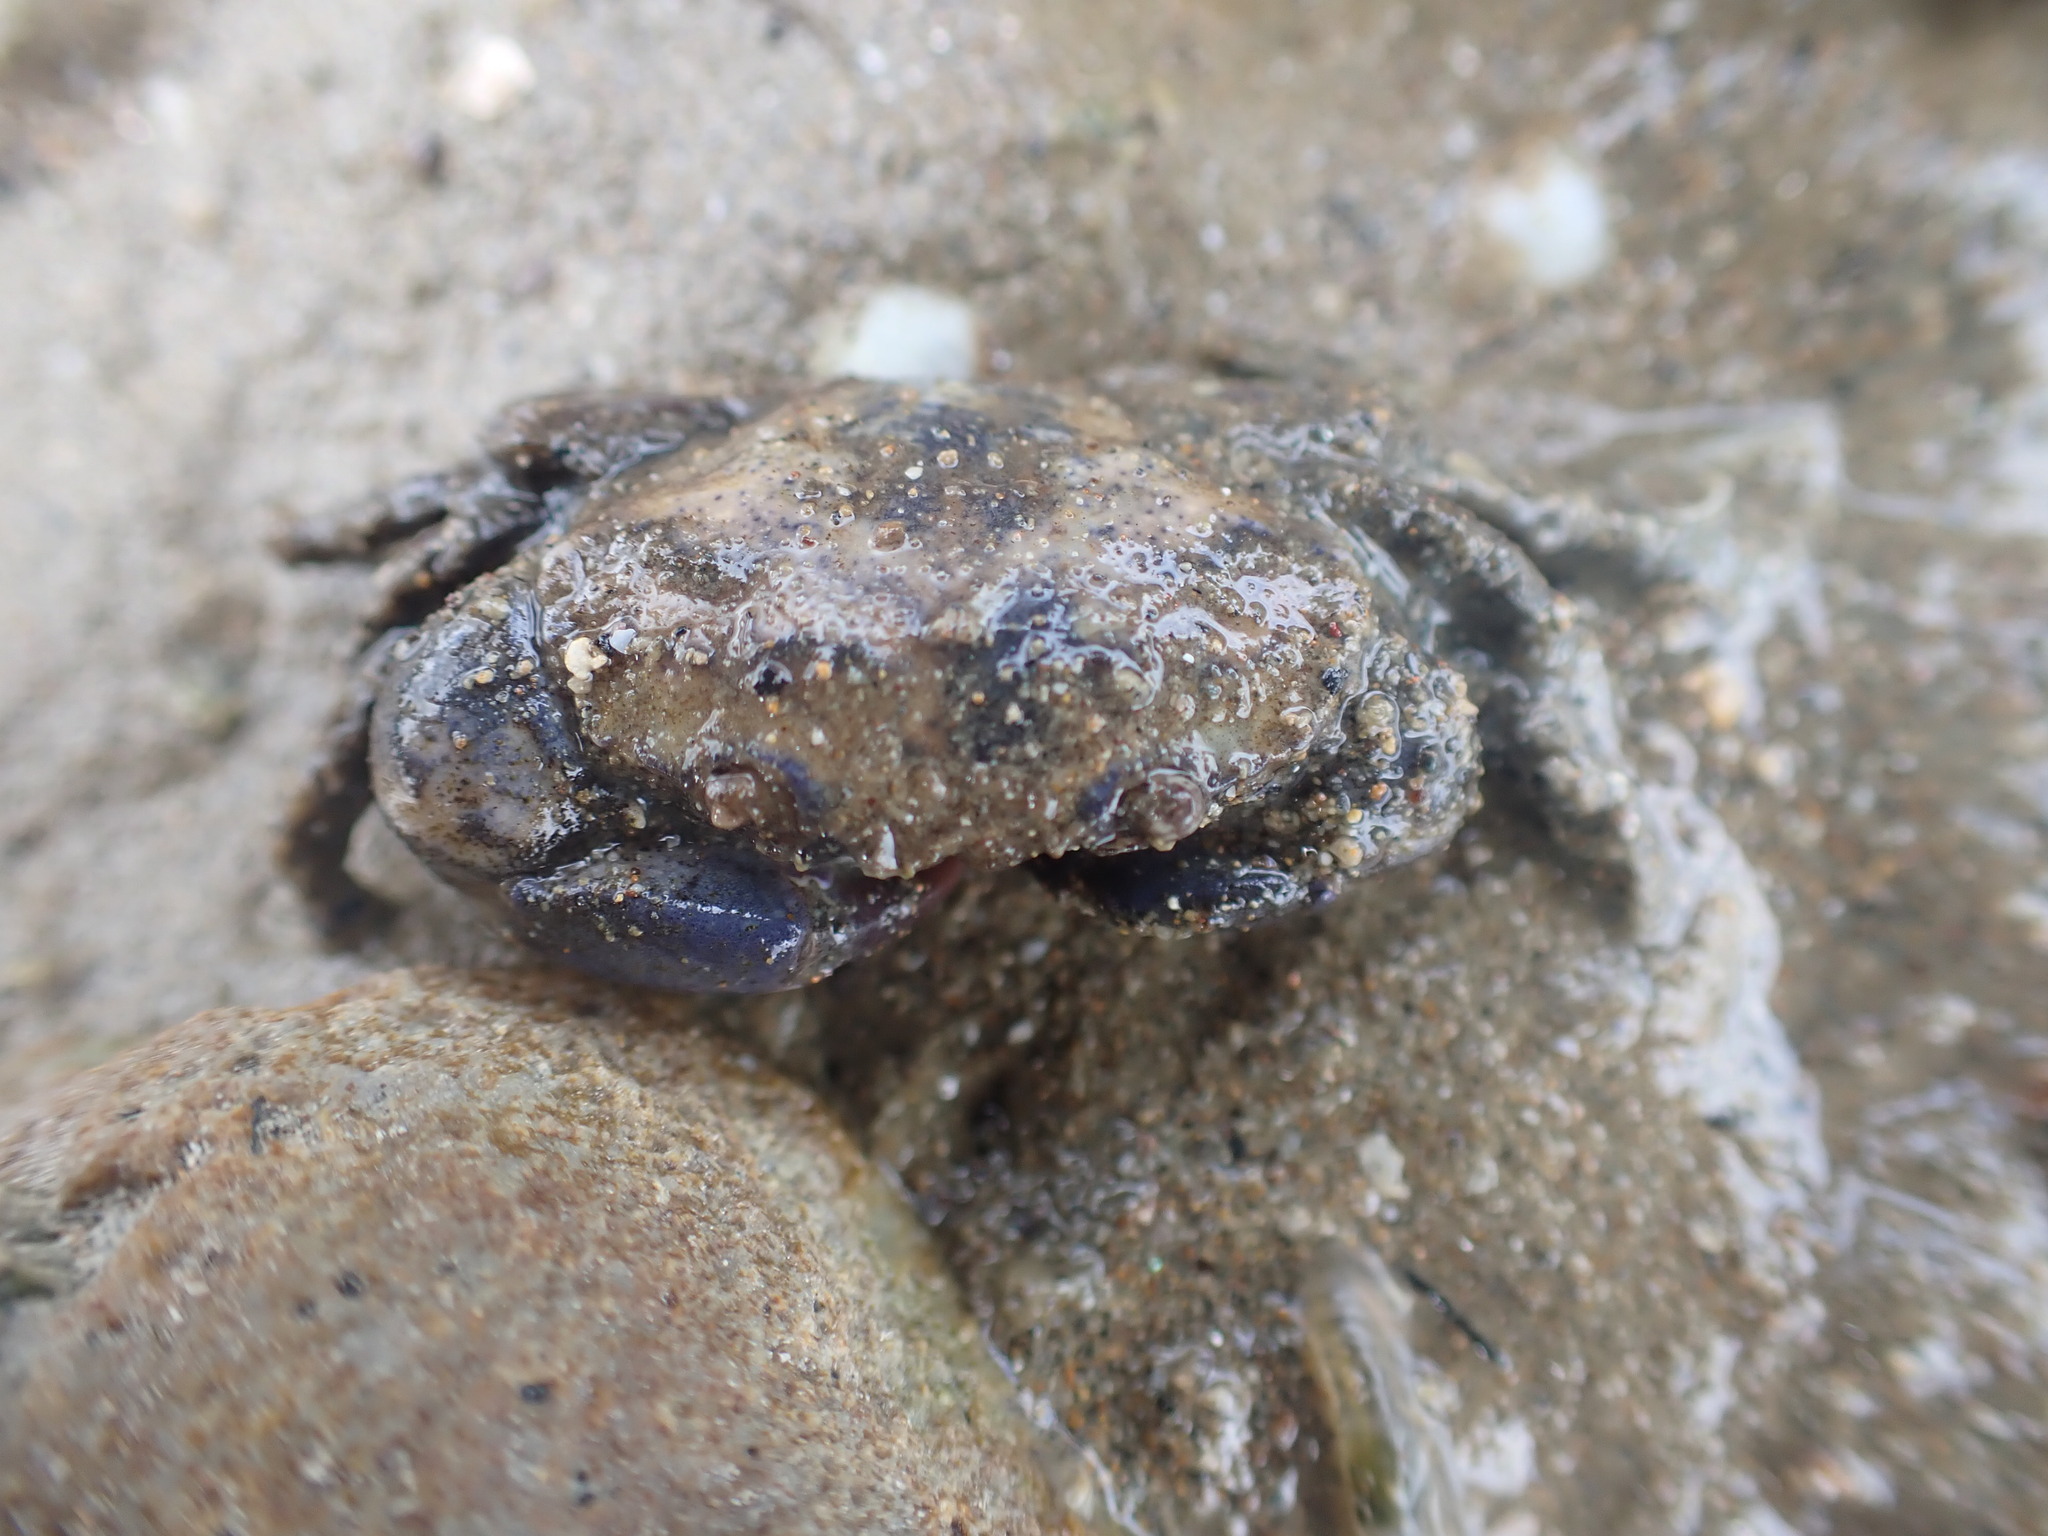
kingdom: Animalia
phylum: Arthropoda
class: Malacostraca
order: Decapoda
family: Pilumnidae
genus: Pilumnopeus
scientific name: Pilumnopeus serratifrons
